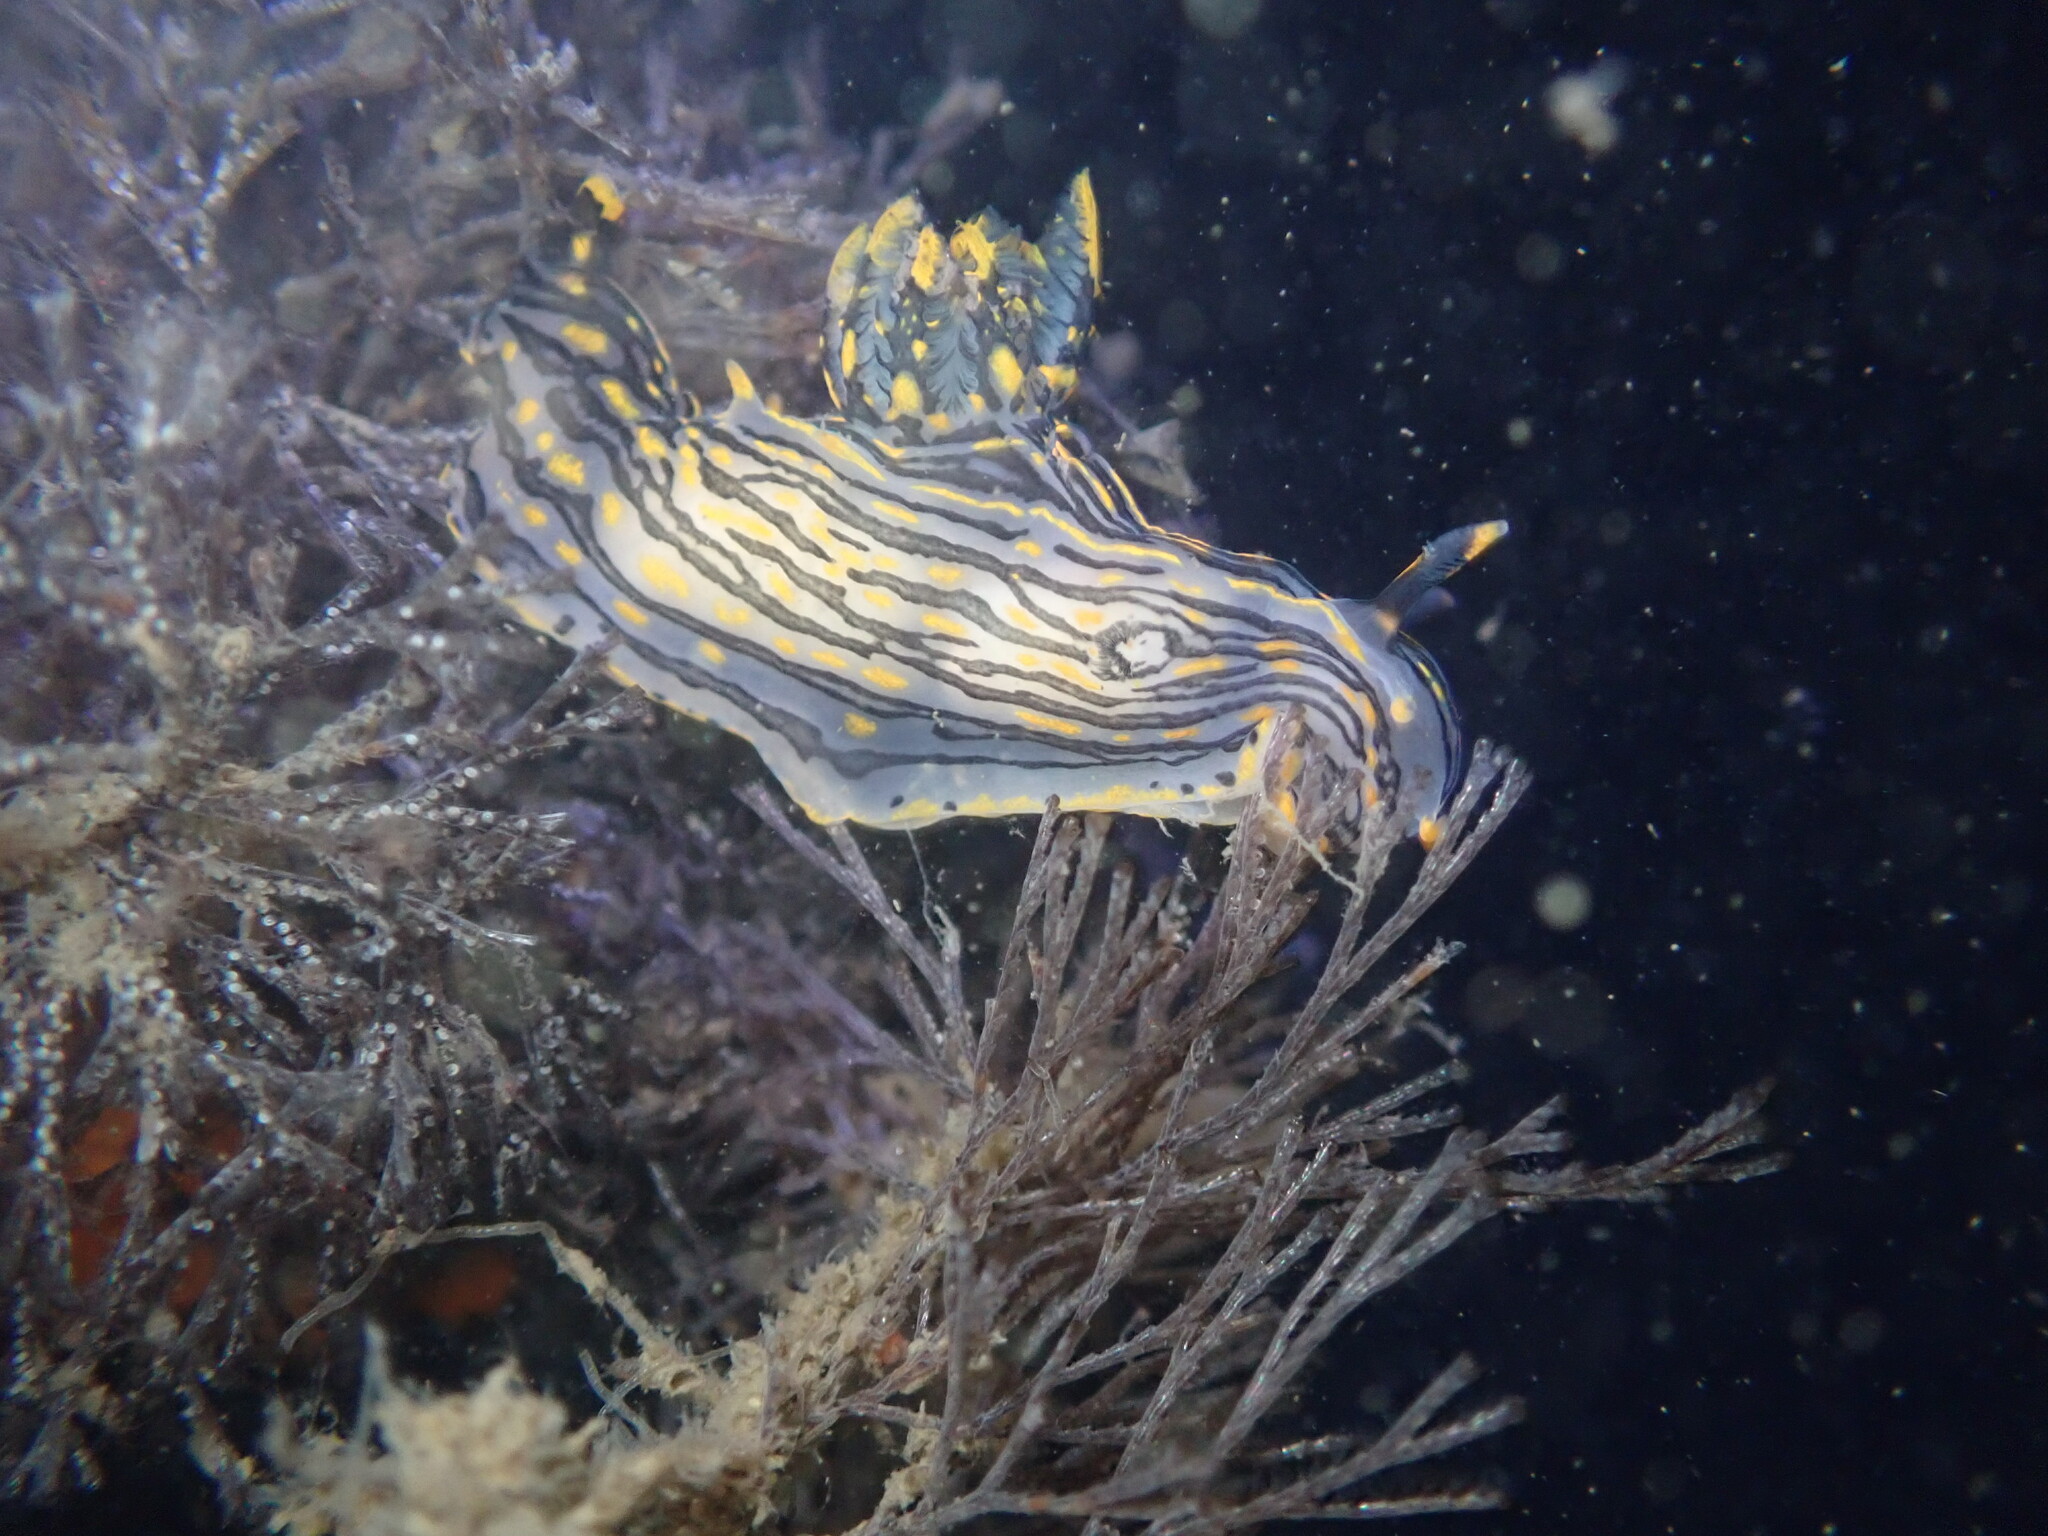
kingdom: Animalia
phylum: Mollusca
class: Gastropoda
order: Nudibranchia
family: Polyceridae
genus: Polycera
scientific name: Polycera atra
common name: Orange-spike polycera
